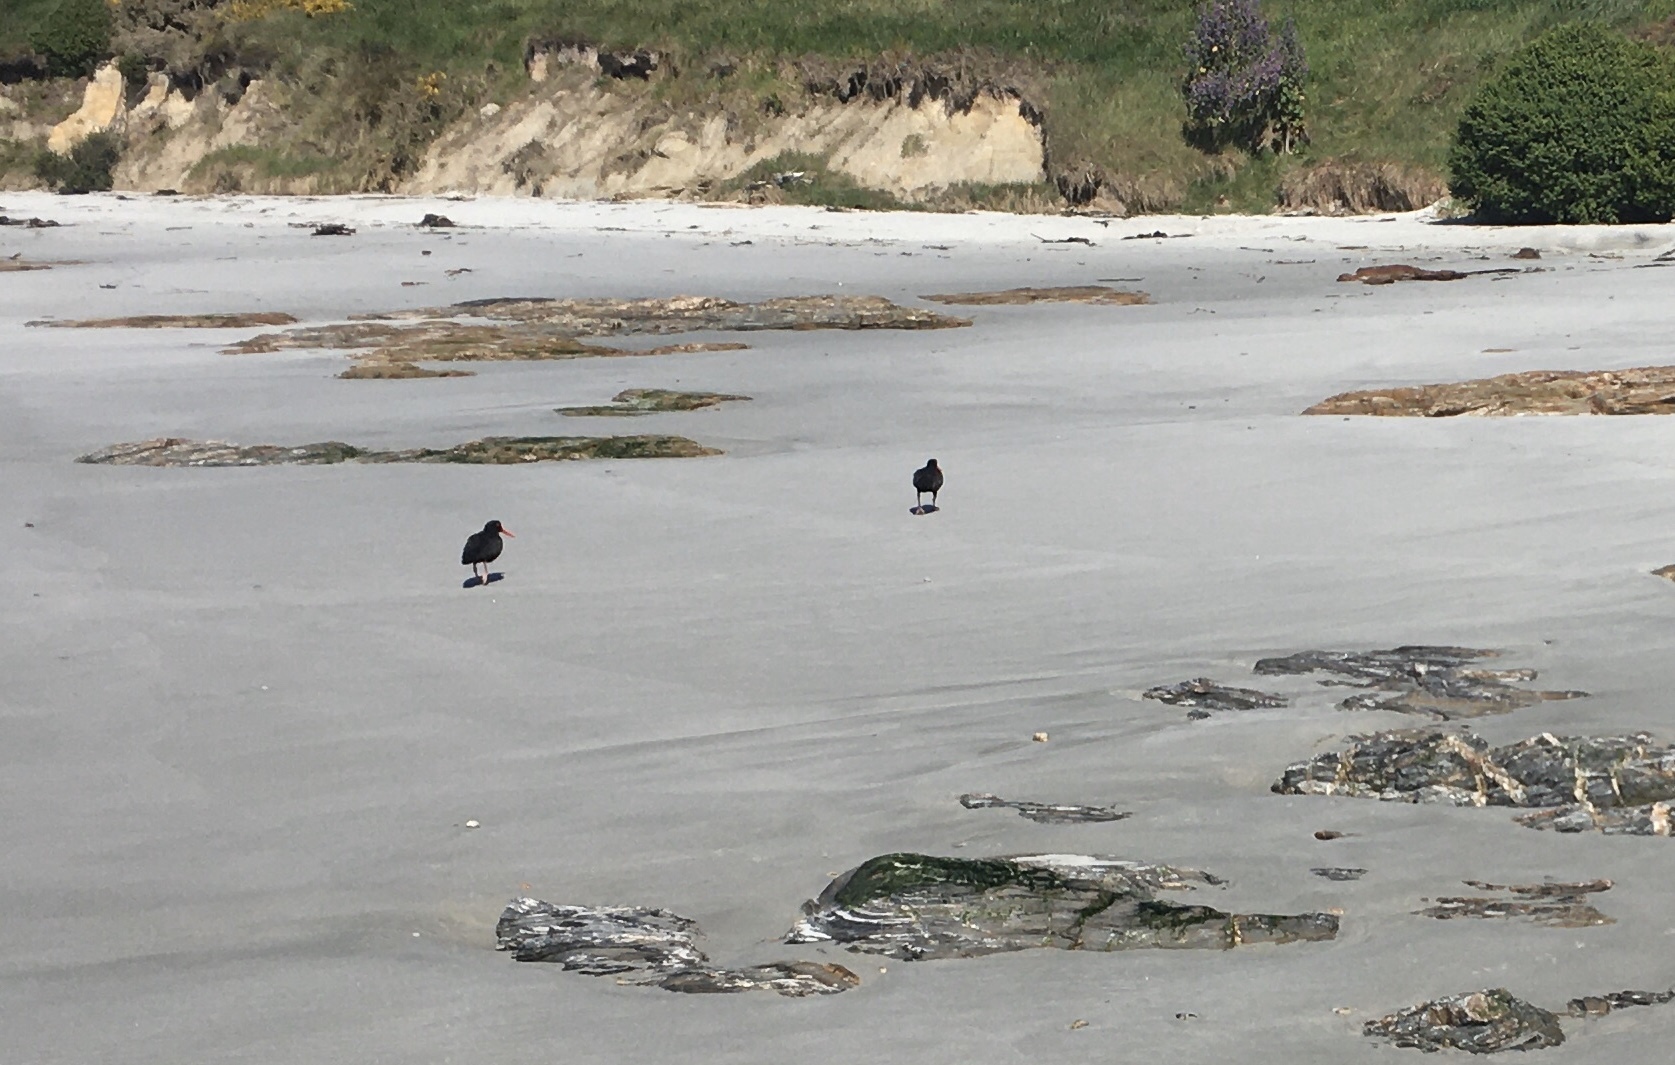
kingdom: Animalia
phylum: Chordata
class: Aves
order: Charadriiformes
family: Haematopodidae
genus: Haematopus
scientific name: Haematopus unicolor
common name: Variable oystercatcher
